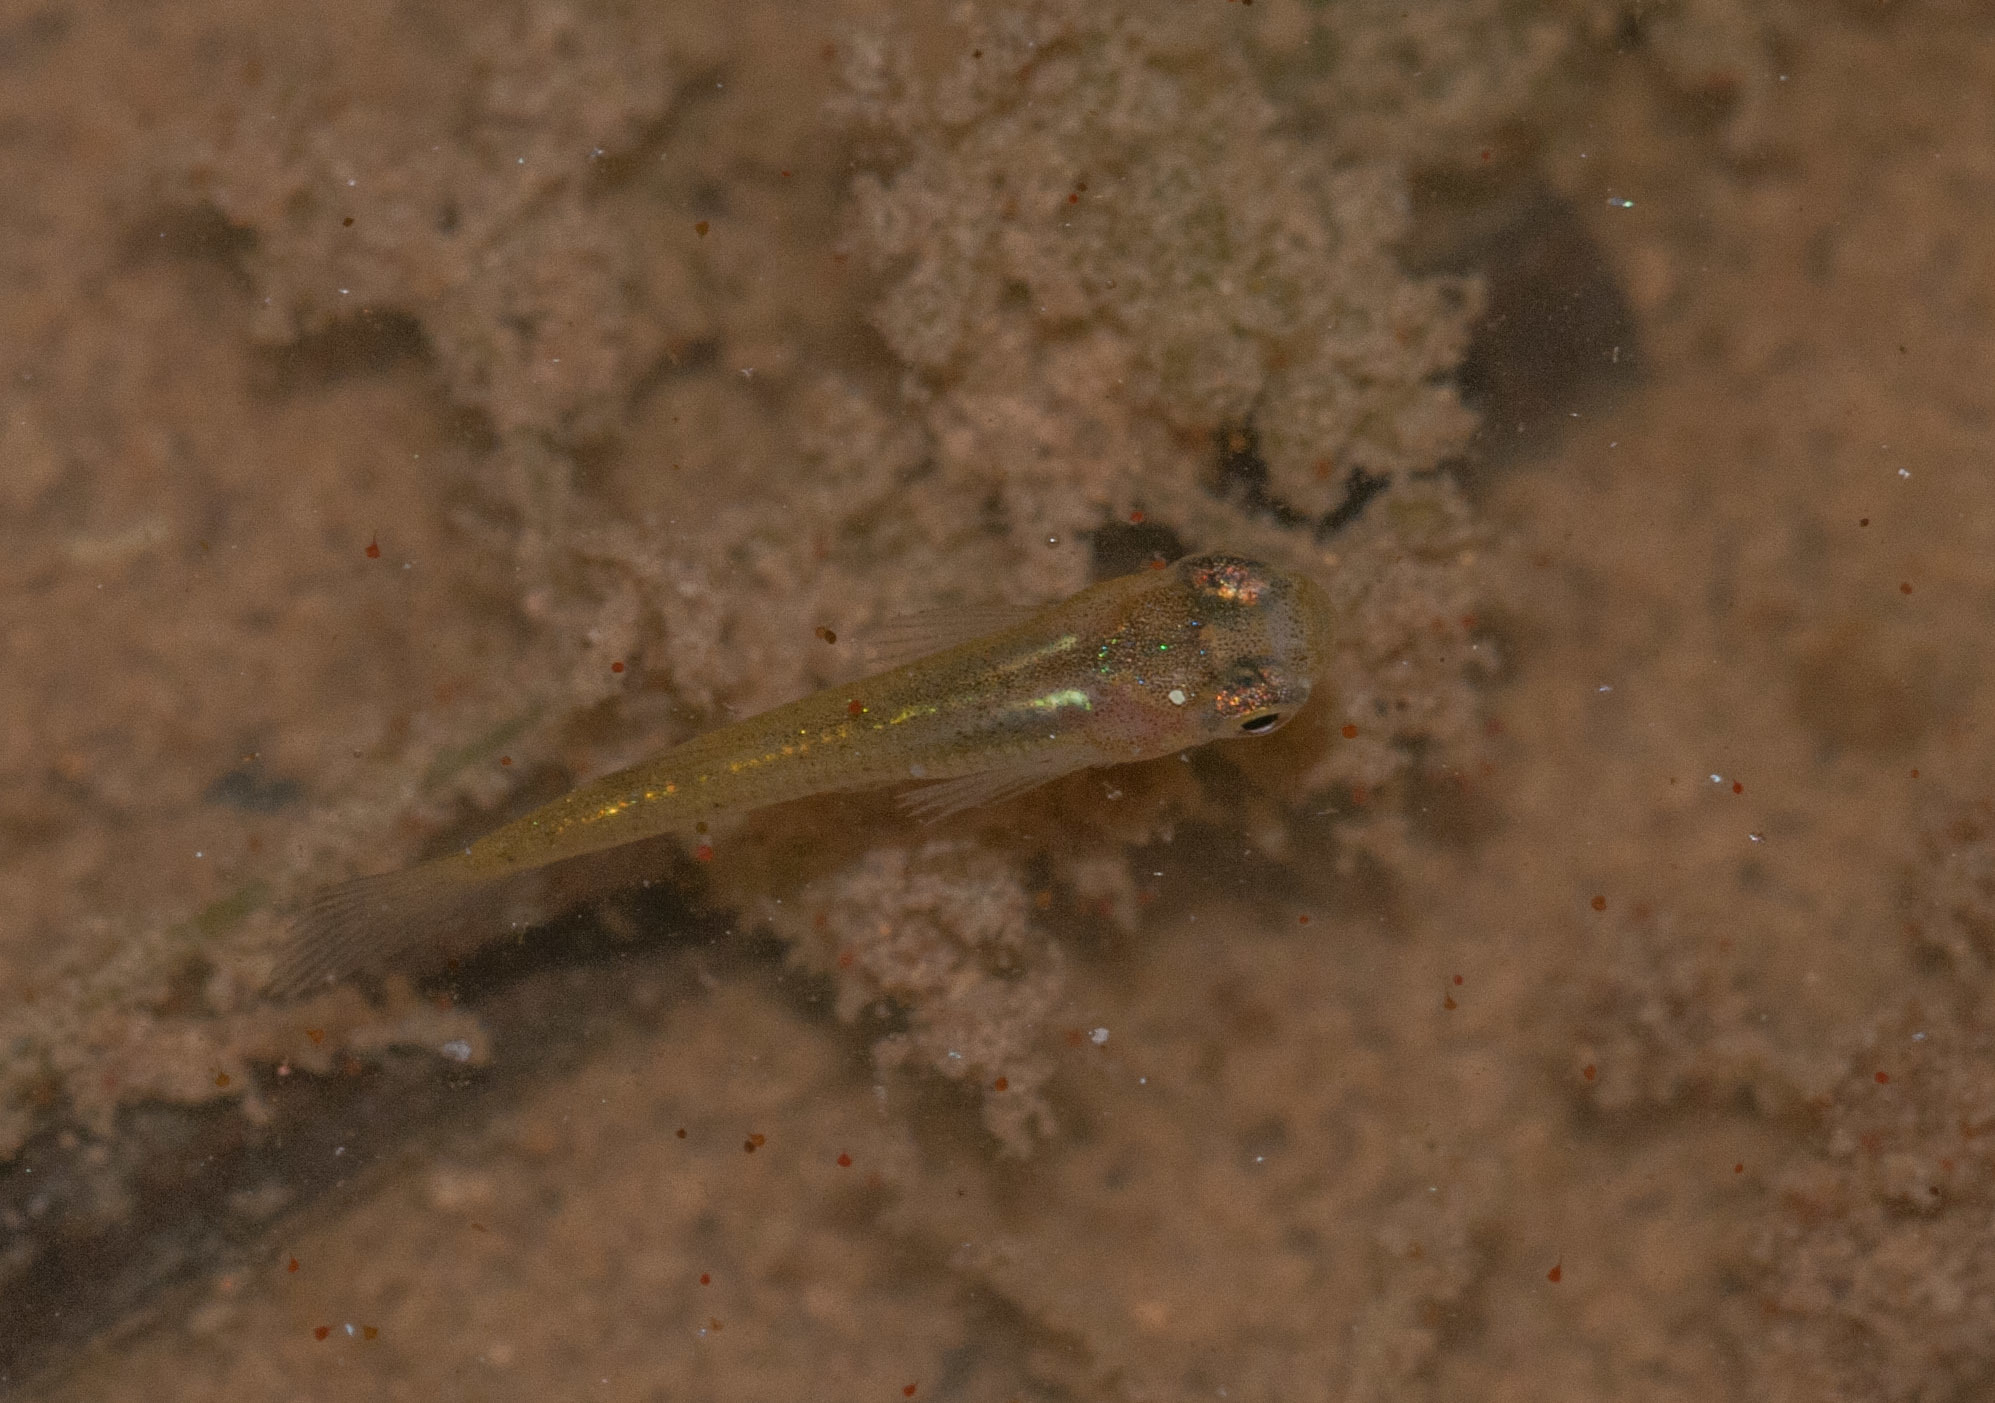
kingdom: Animalia
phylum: Chordata
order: Cyprinodontiformes
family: Poeciliidae
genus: Gambusia
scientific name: Gambusia holbrooki
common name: Eastern mosquitofish
